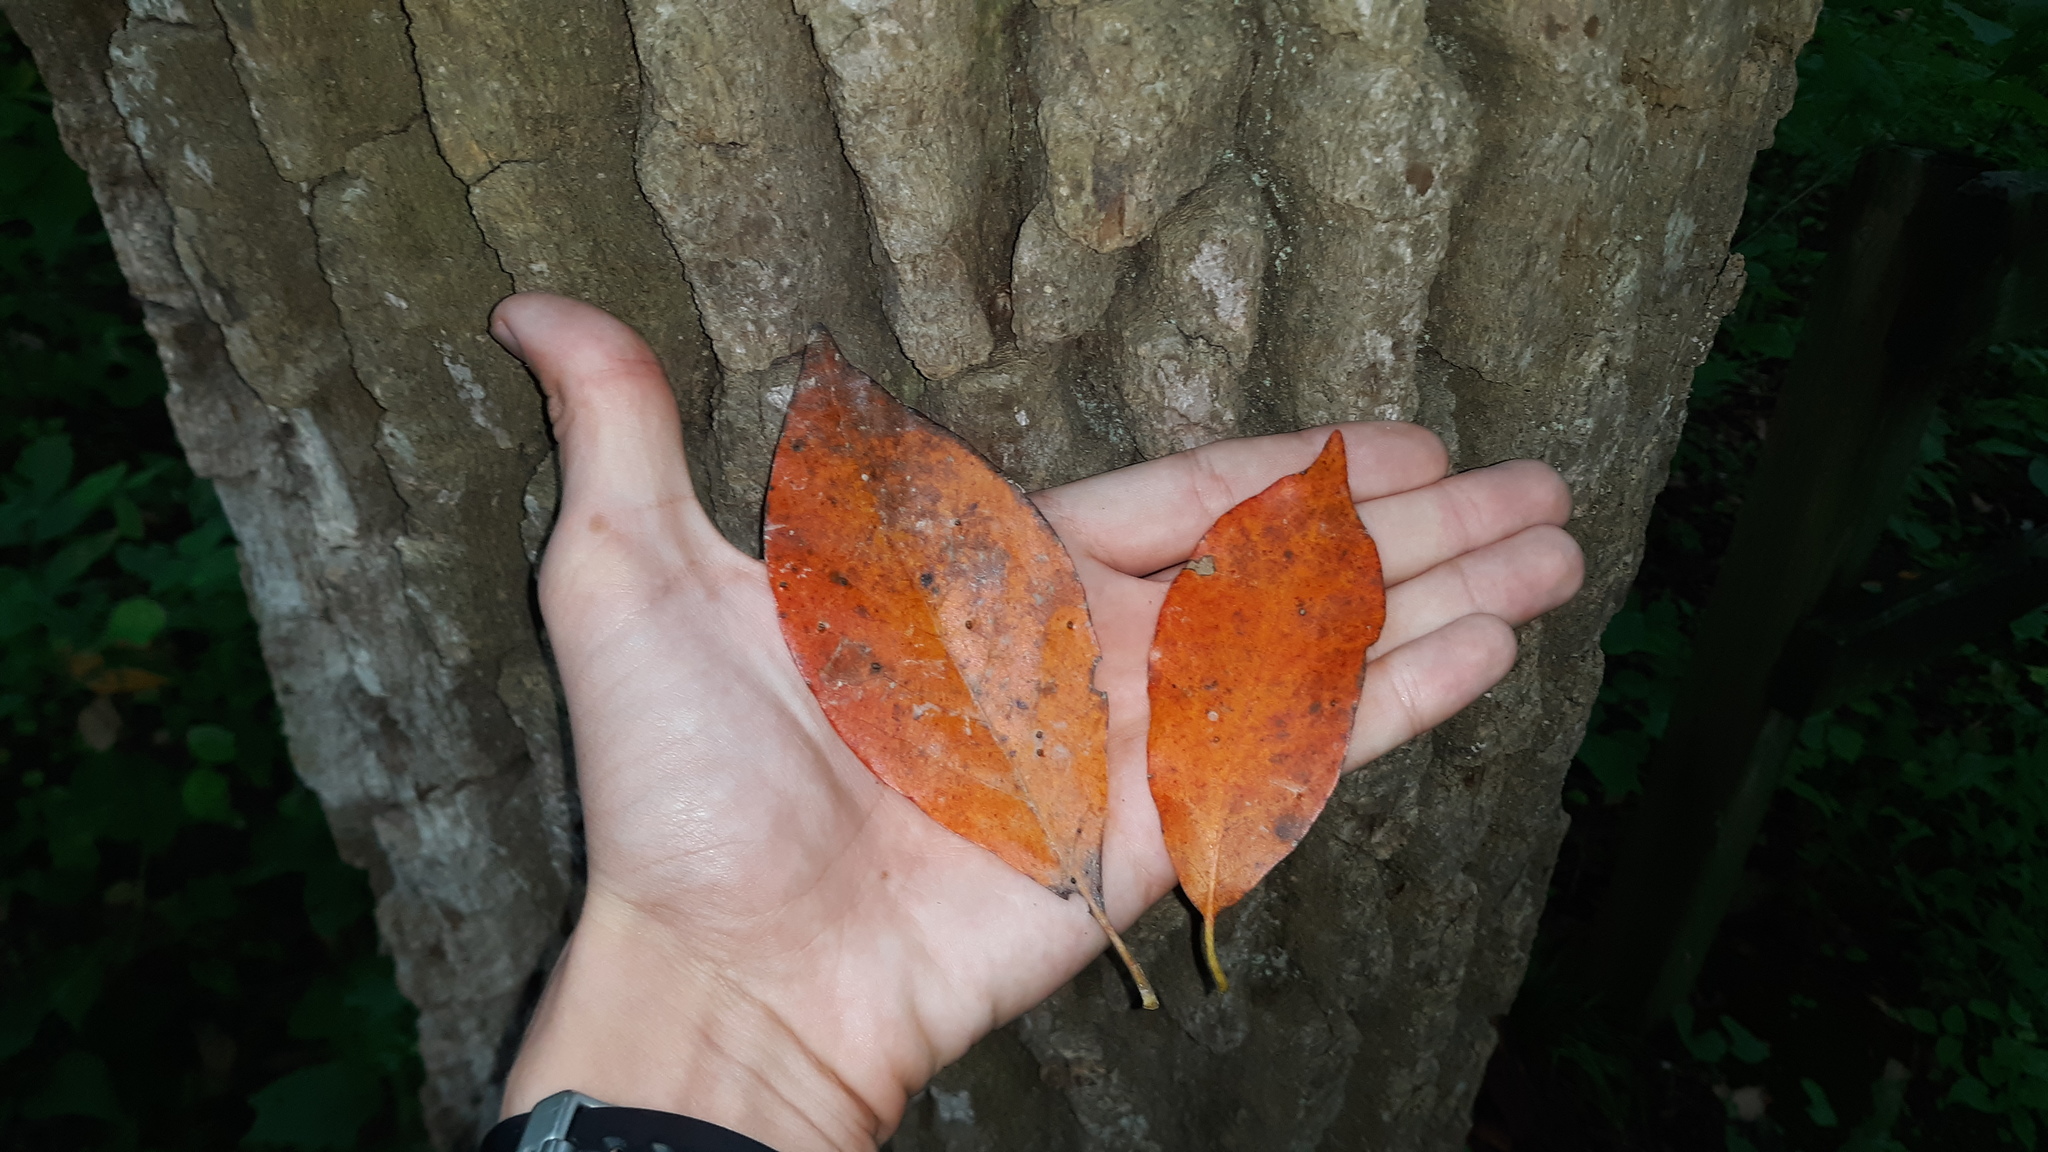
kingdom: Plantae
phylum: Tracheophyta
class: Magnoliopsida
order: Cornales
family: Nyssaceae
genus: Nyssa
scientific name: Nyssa sylvatica
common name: Black tupelo
